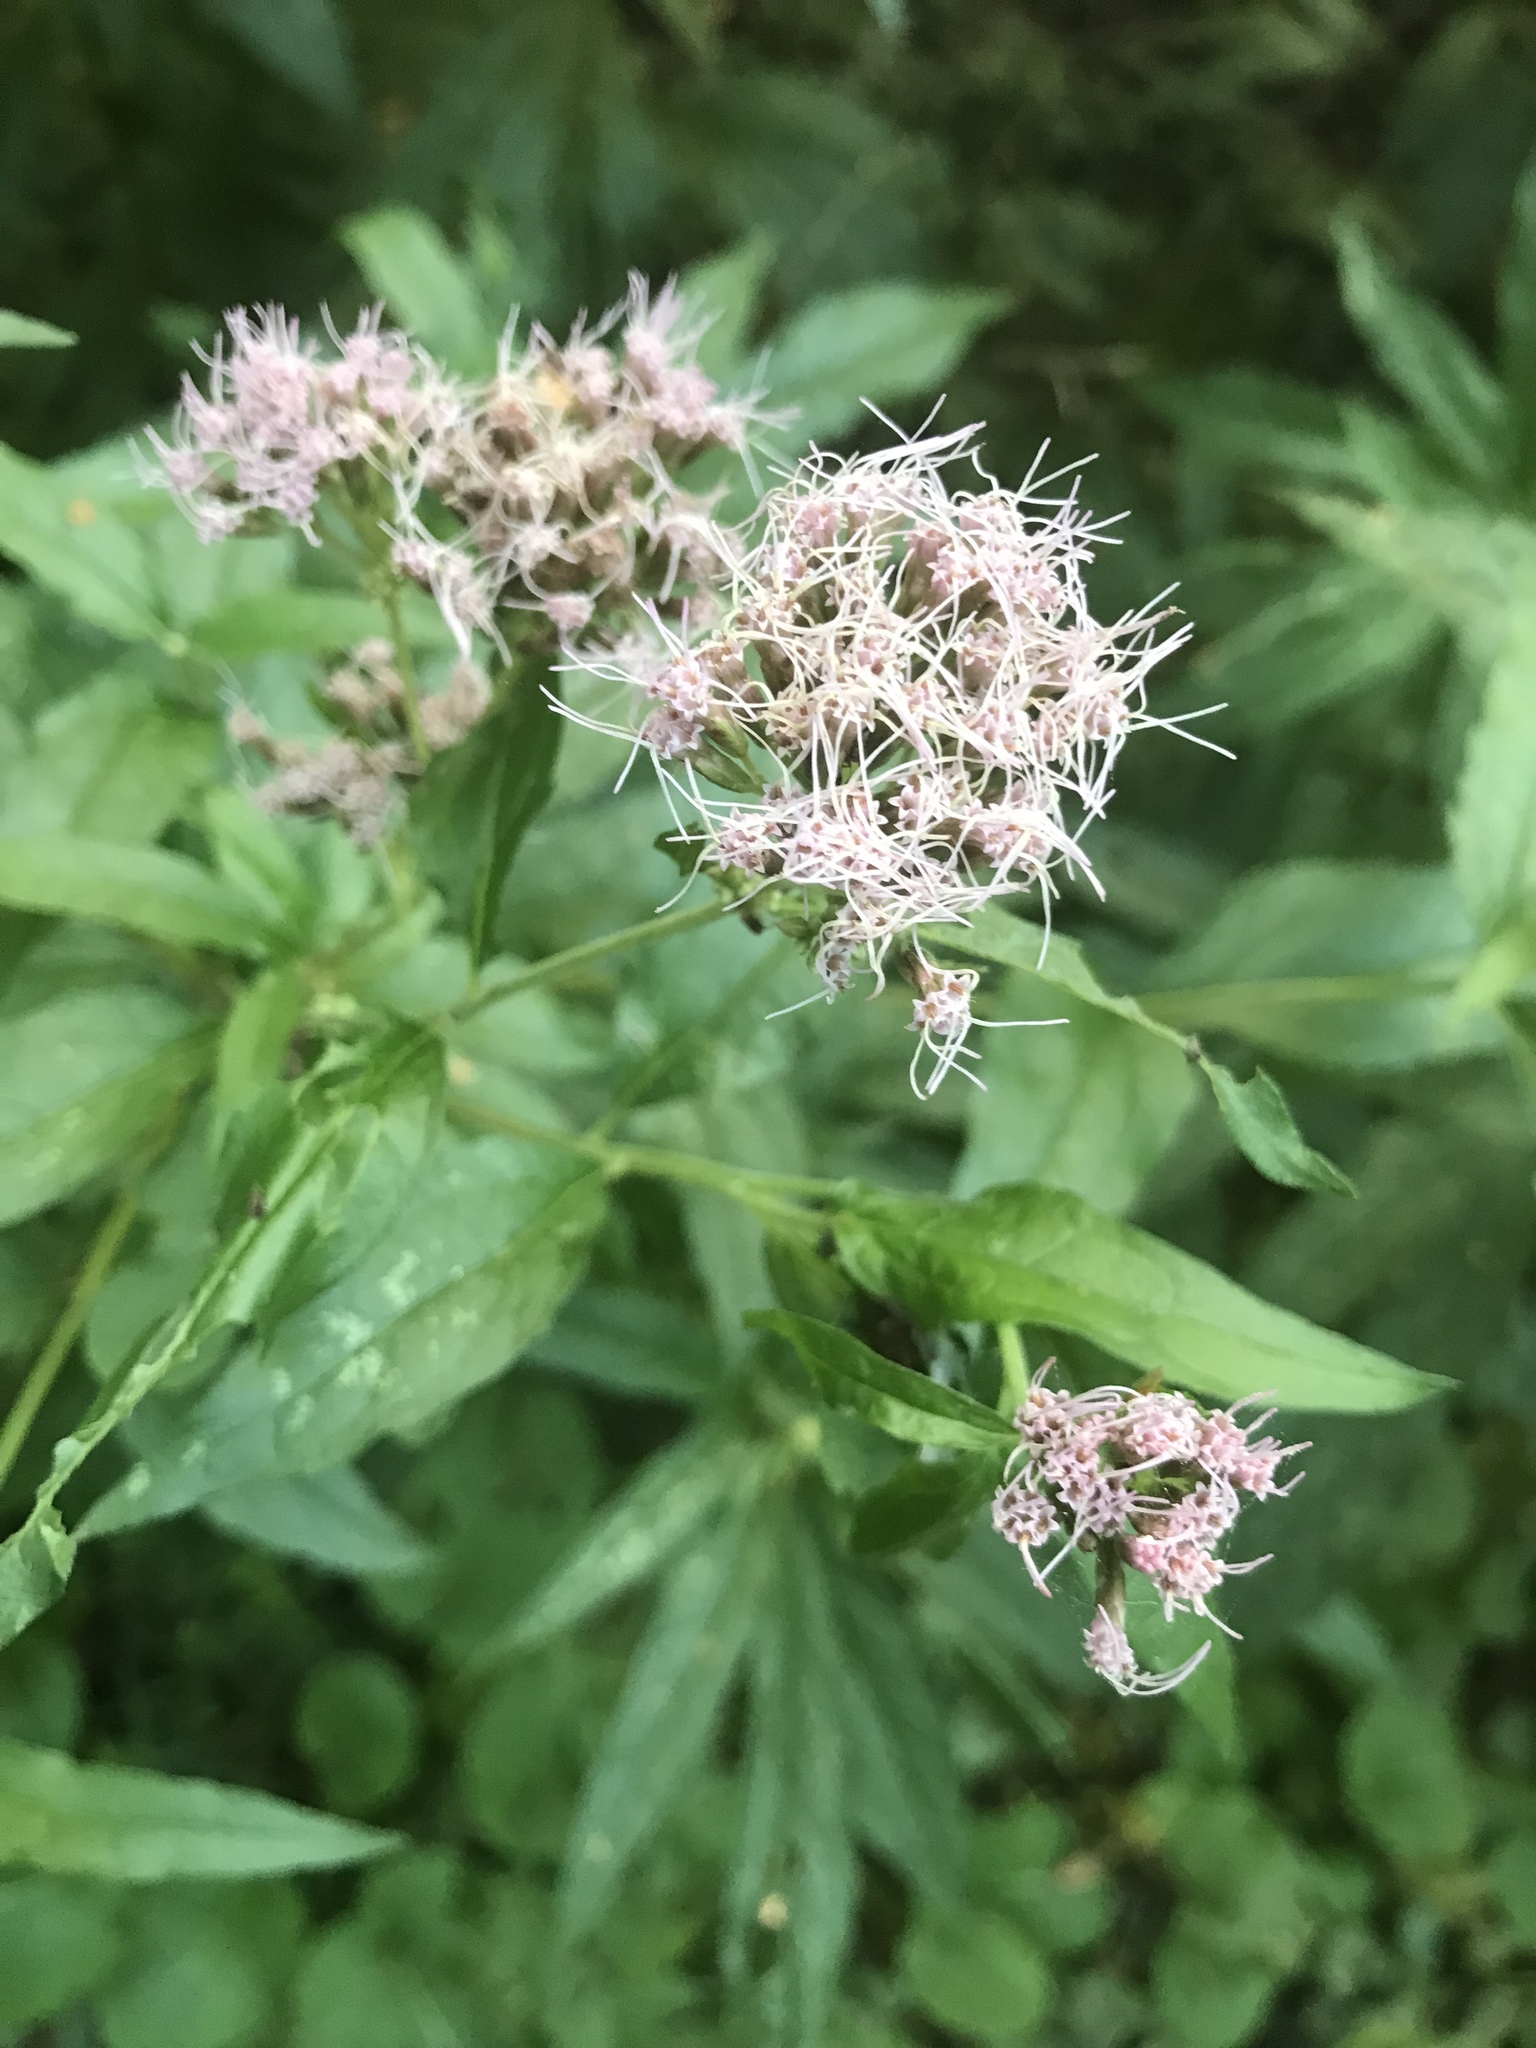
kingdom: Plantae
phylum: Tracheophyta
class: Magnoliopsida
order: Asterales
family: Asteraceae
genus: Eupatorium
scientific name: Eupatorium cannabinum
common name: Hemp-agrimony
